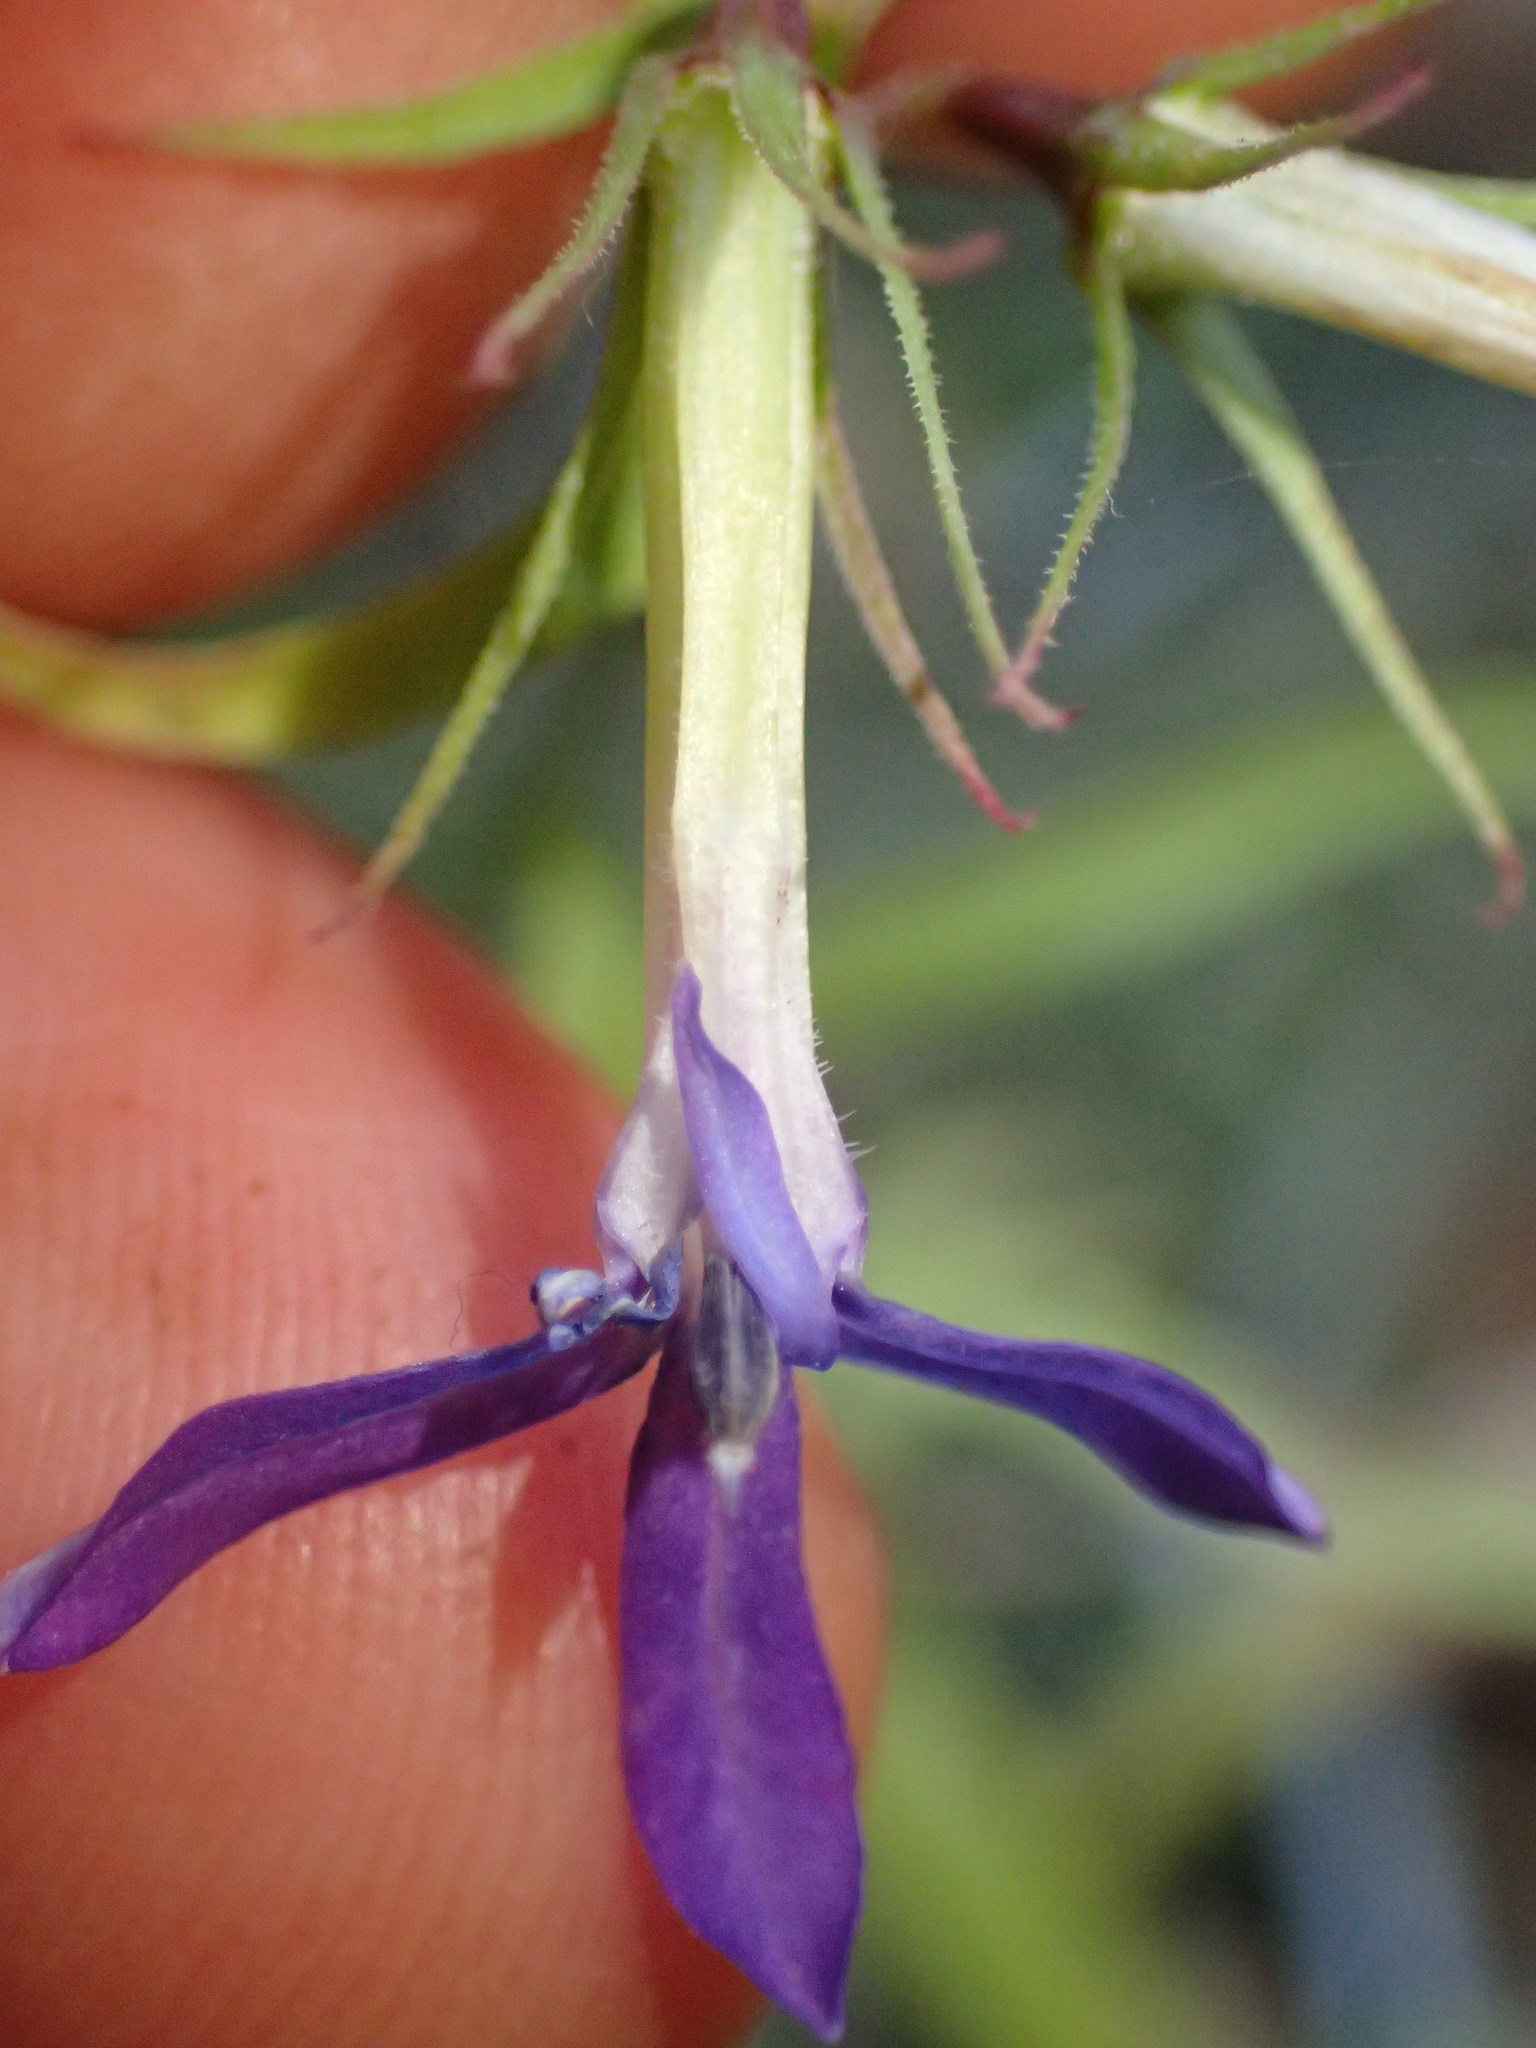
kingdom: Plantae
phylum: Tracheophyta
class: Magnoliopsida
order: Asterales
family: Campanulaceae
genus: Palmerella
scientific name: Palmerella debilis
